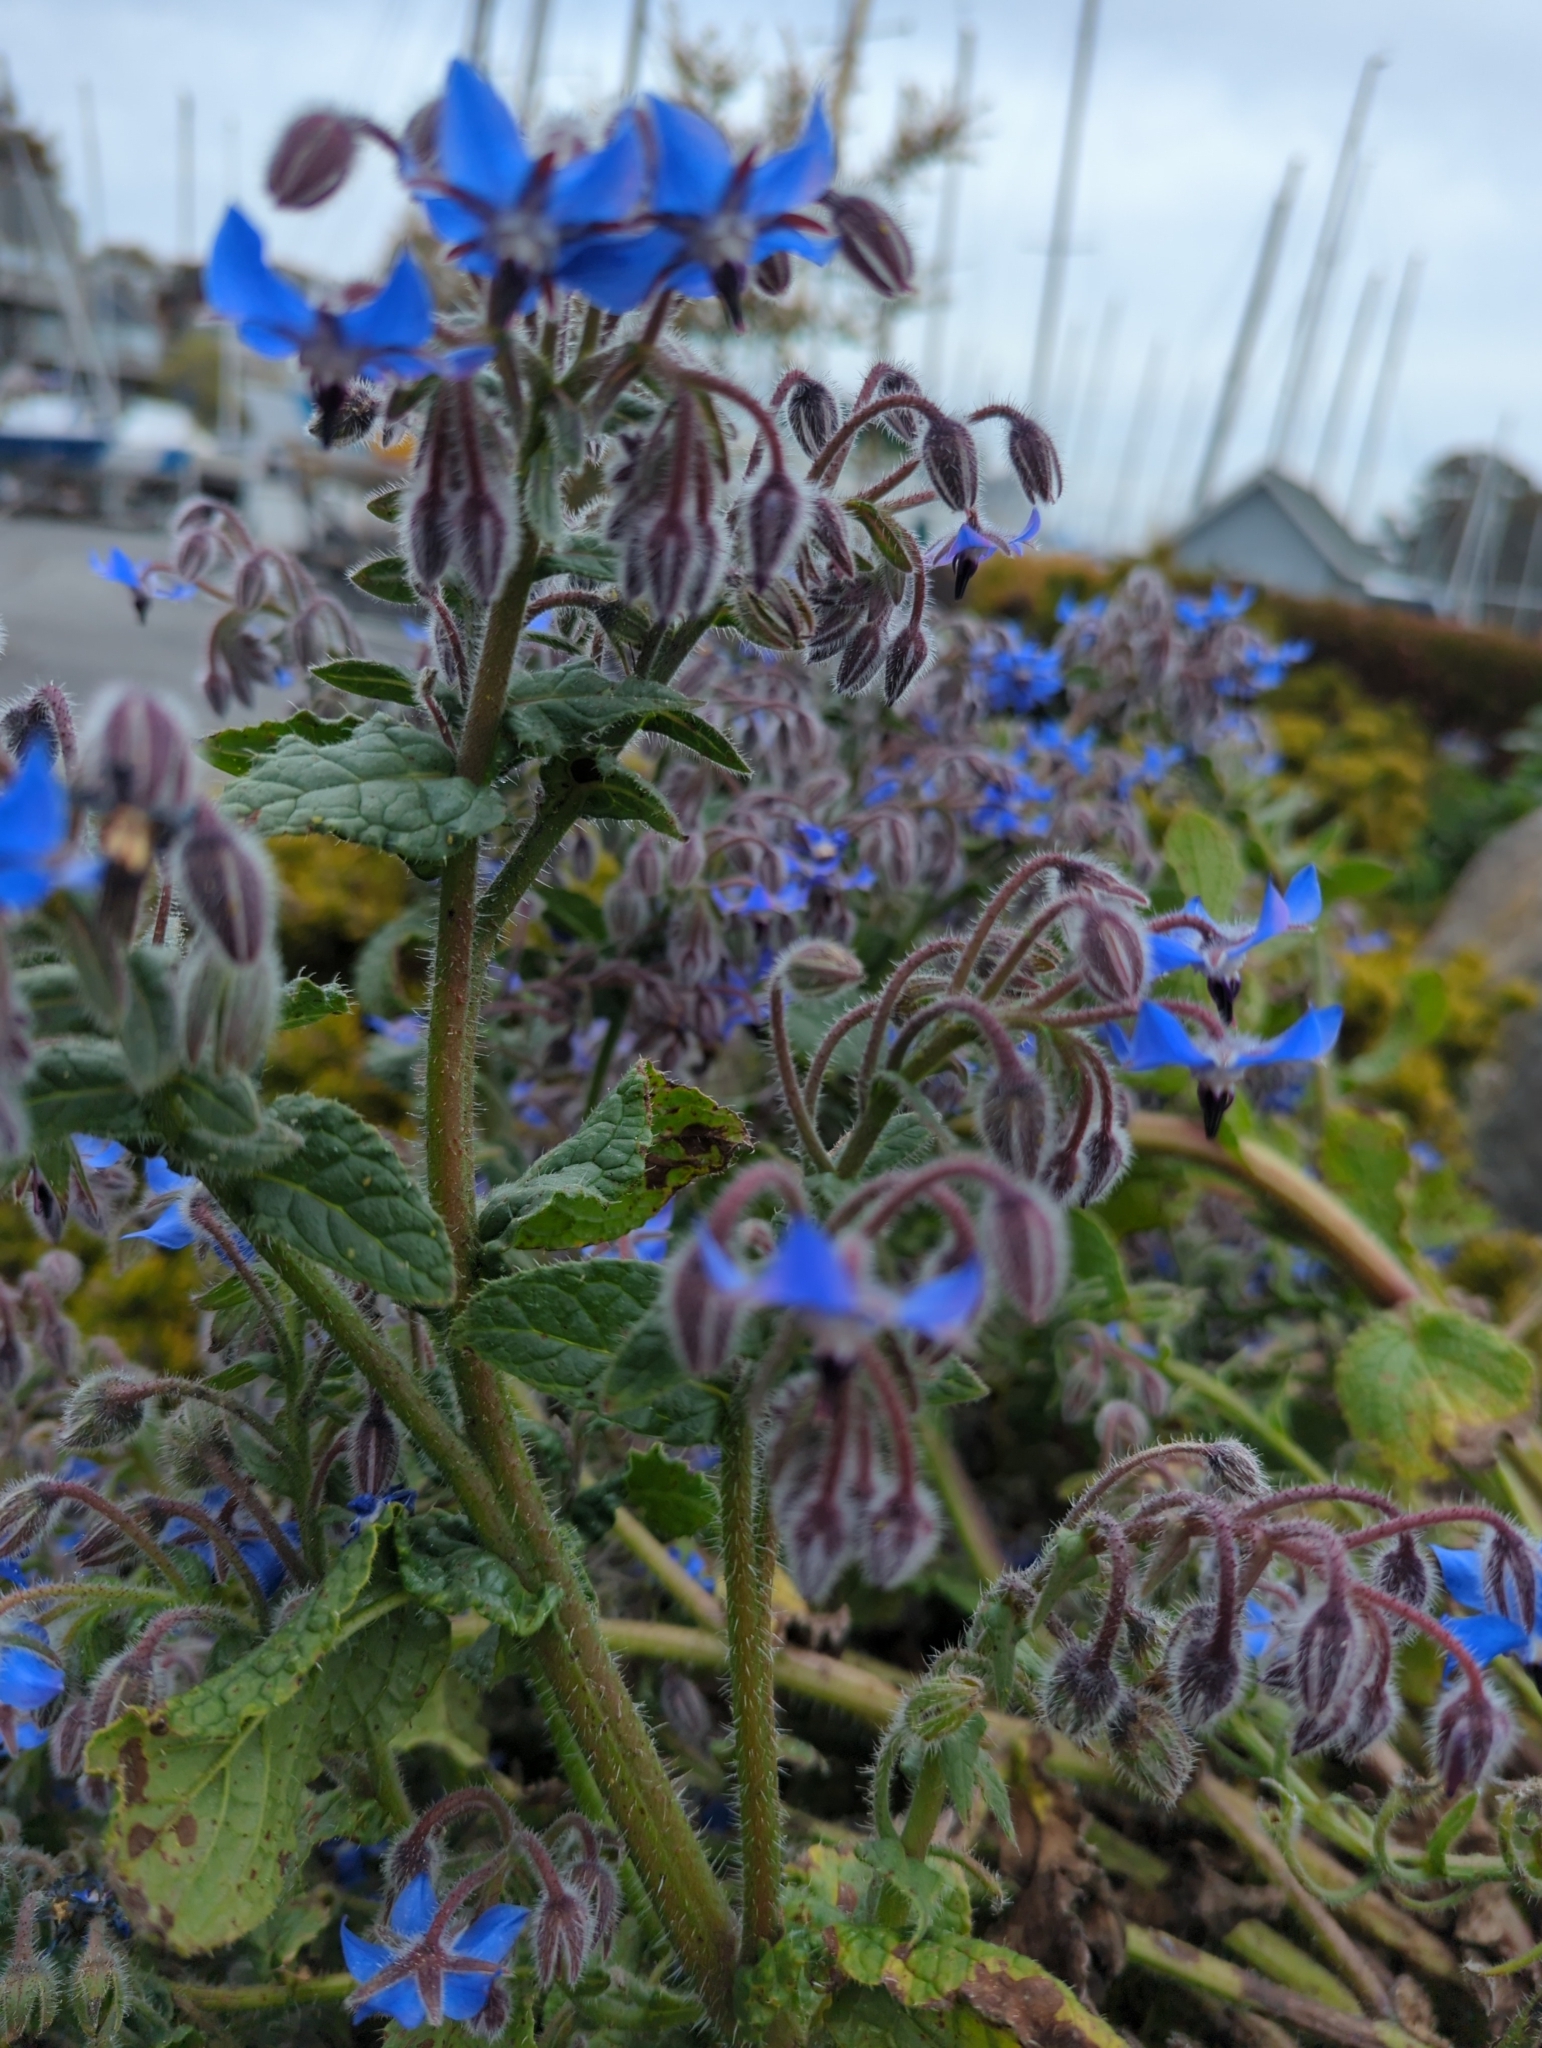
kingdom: Plantae
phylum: Tracheophyta
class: Magnoliopsida
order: Boraginales
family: Boraginaceae
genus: Borago
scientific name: Borago officinalis
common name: Borage
